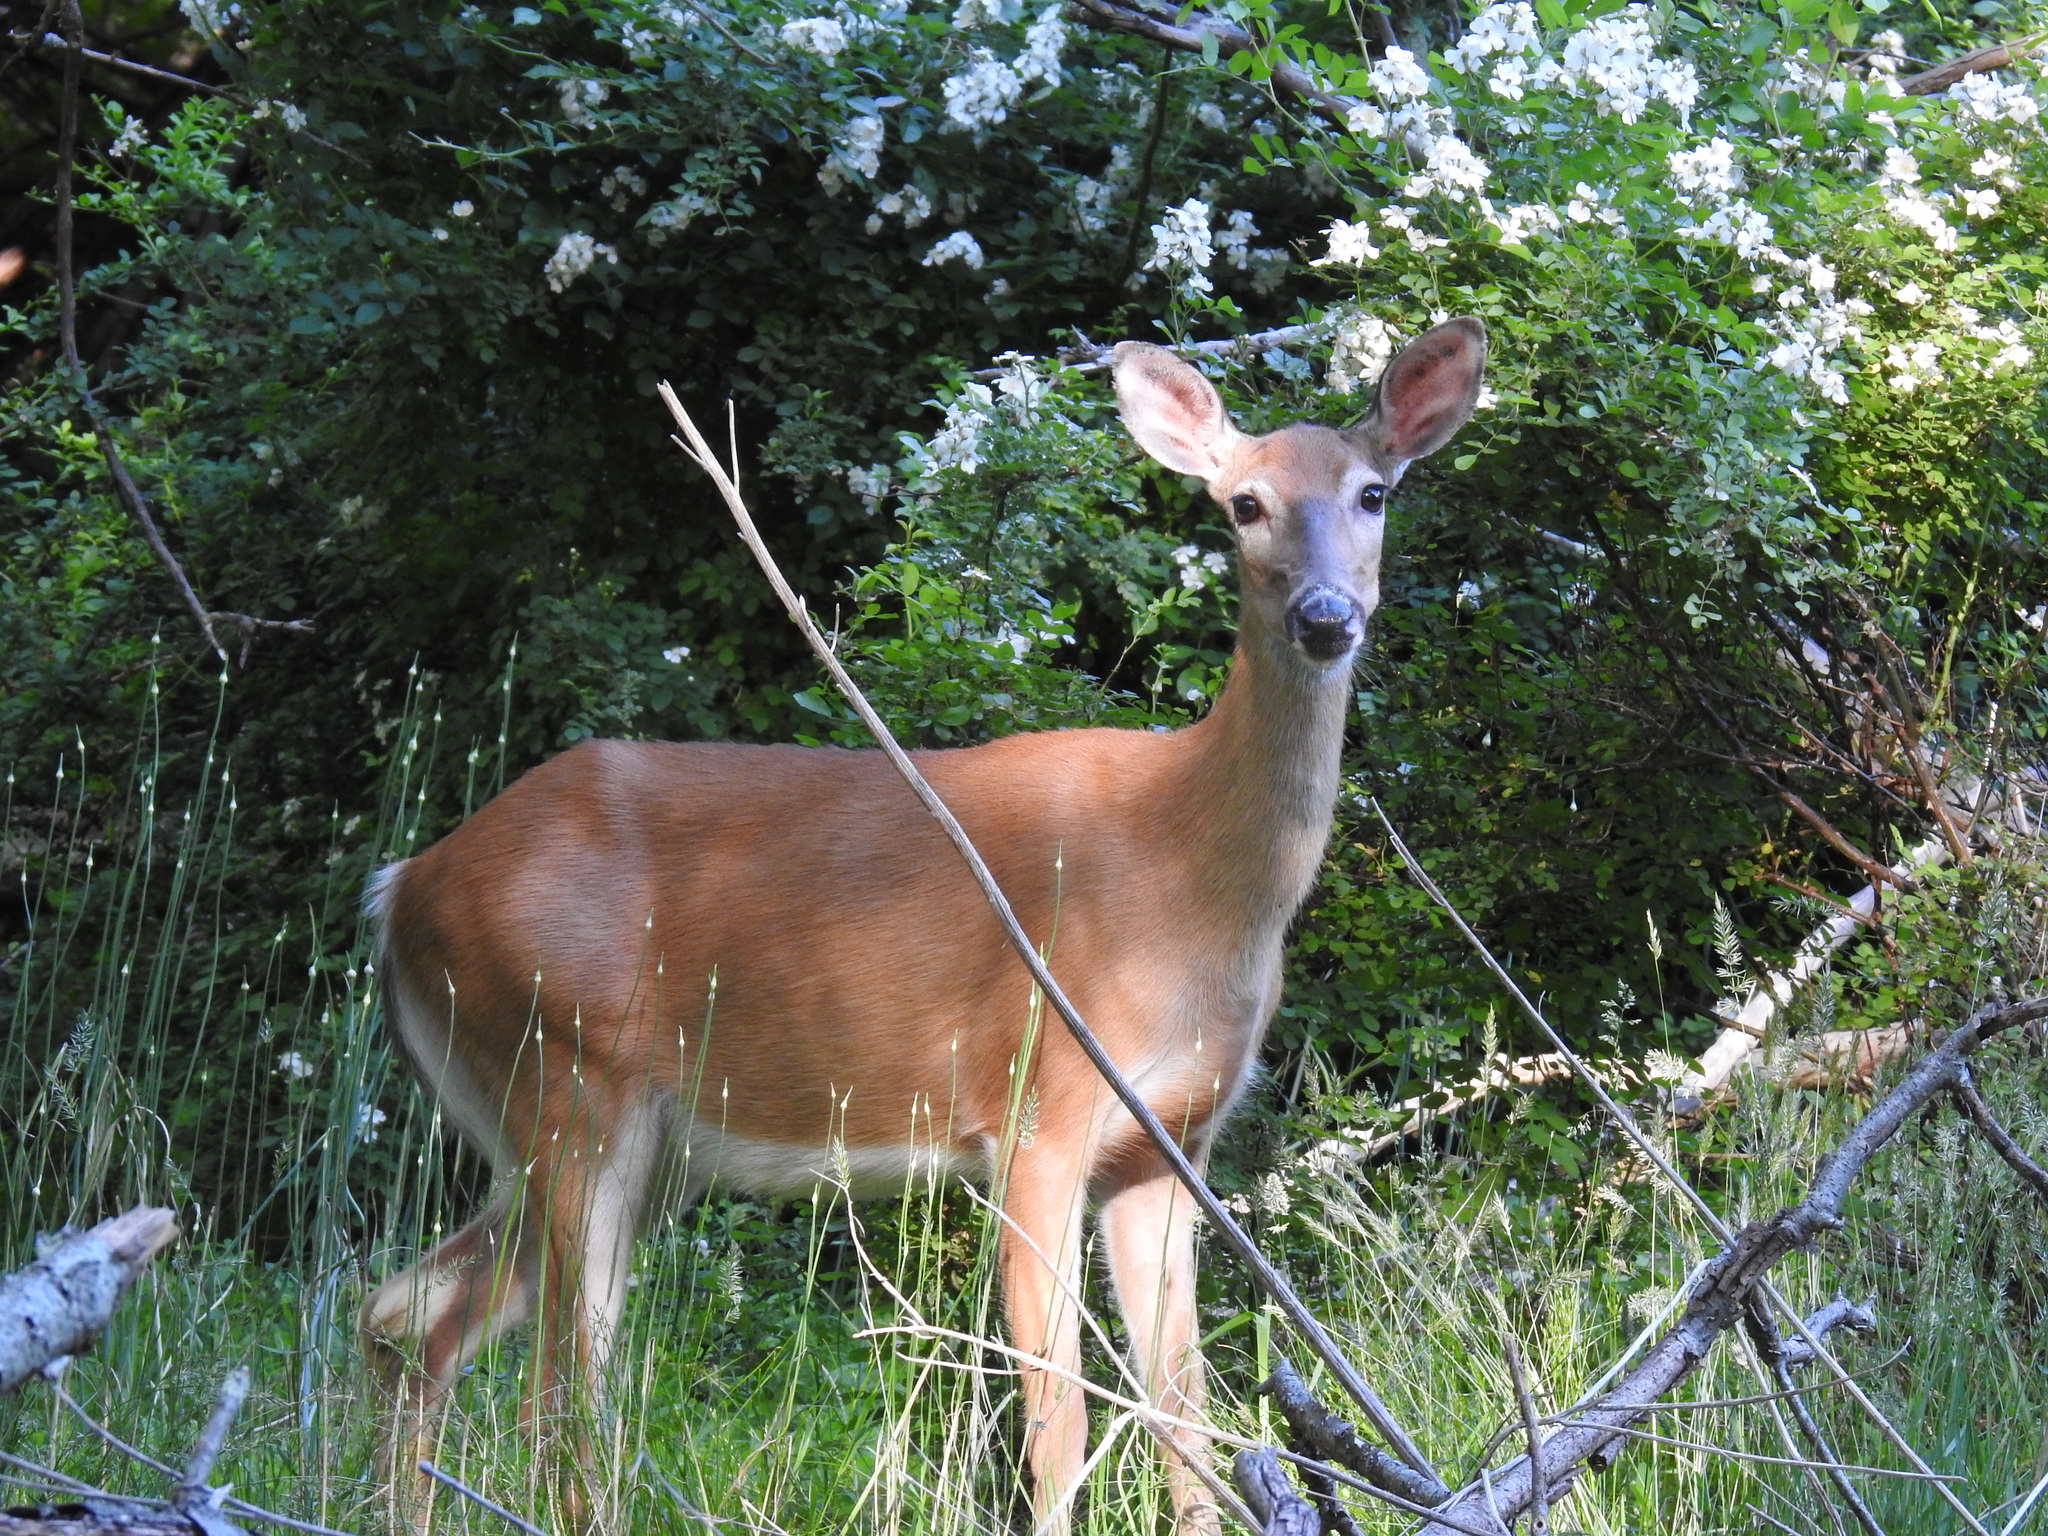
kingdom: Animalia
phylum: Chordata
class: Mammalia
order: Artiodactyla
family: Cervidae
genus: Odocoileus
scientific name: Odocoileus virginianus
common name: White-tailed deer
